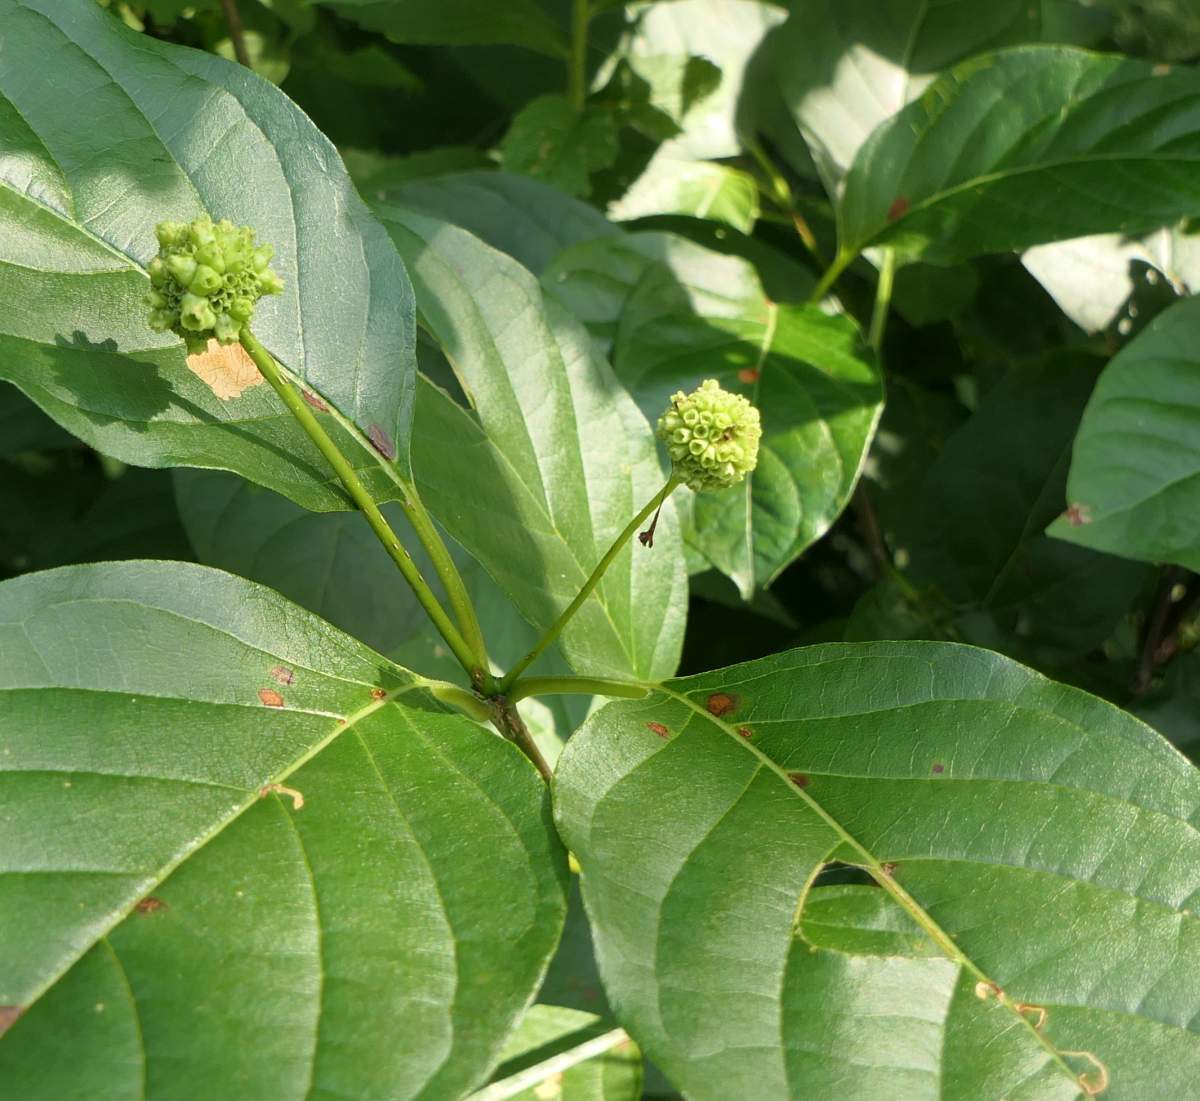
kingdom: Plantae
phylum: Tracheophyta
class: Magnoliopsida
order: Gentianales
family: Rubiaceae
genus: Cephalanthus
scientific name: Cephalanthus occidentalis
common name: Button-willow
